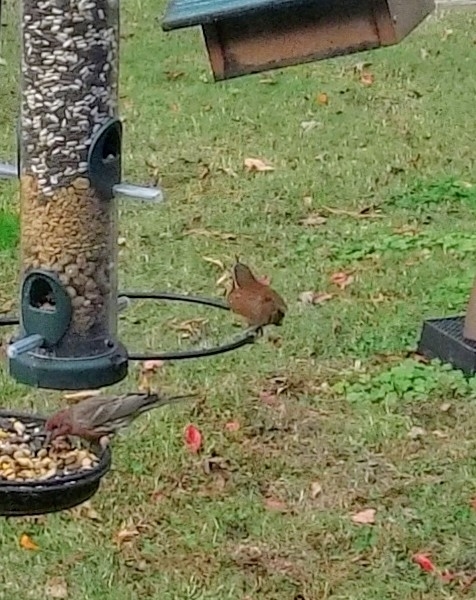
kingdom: Animalia
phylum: Chordata
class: Aves
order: Passeriformes
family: Troglodytidae
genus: Thryothorus
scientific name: Thryothorus ludovicianus
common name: Carolina wren
